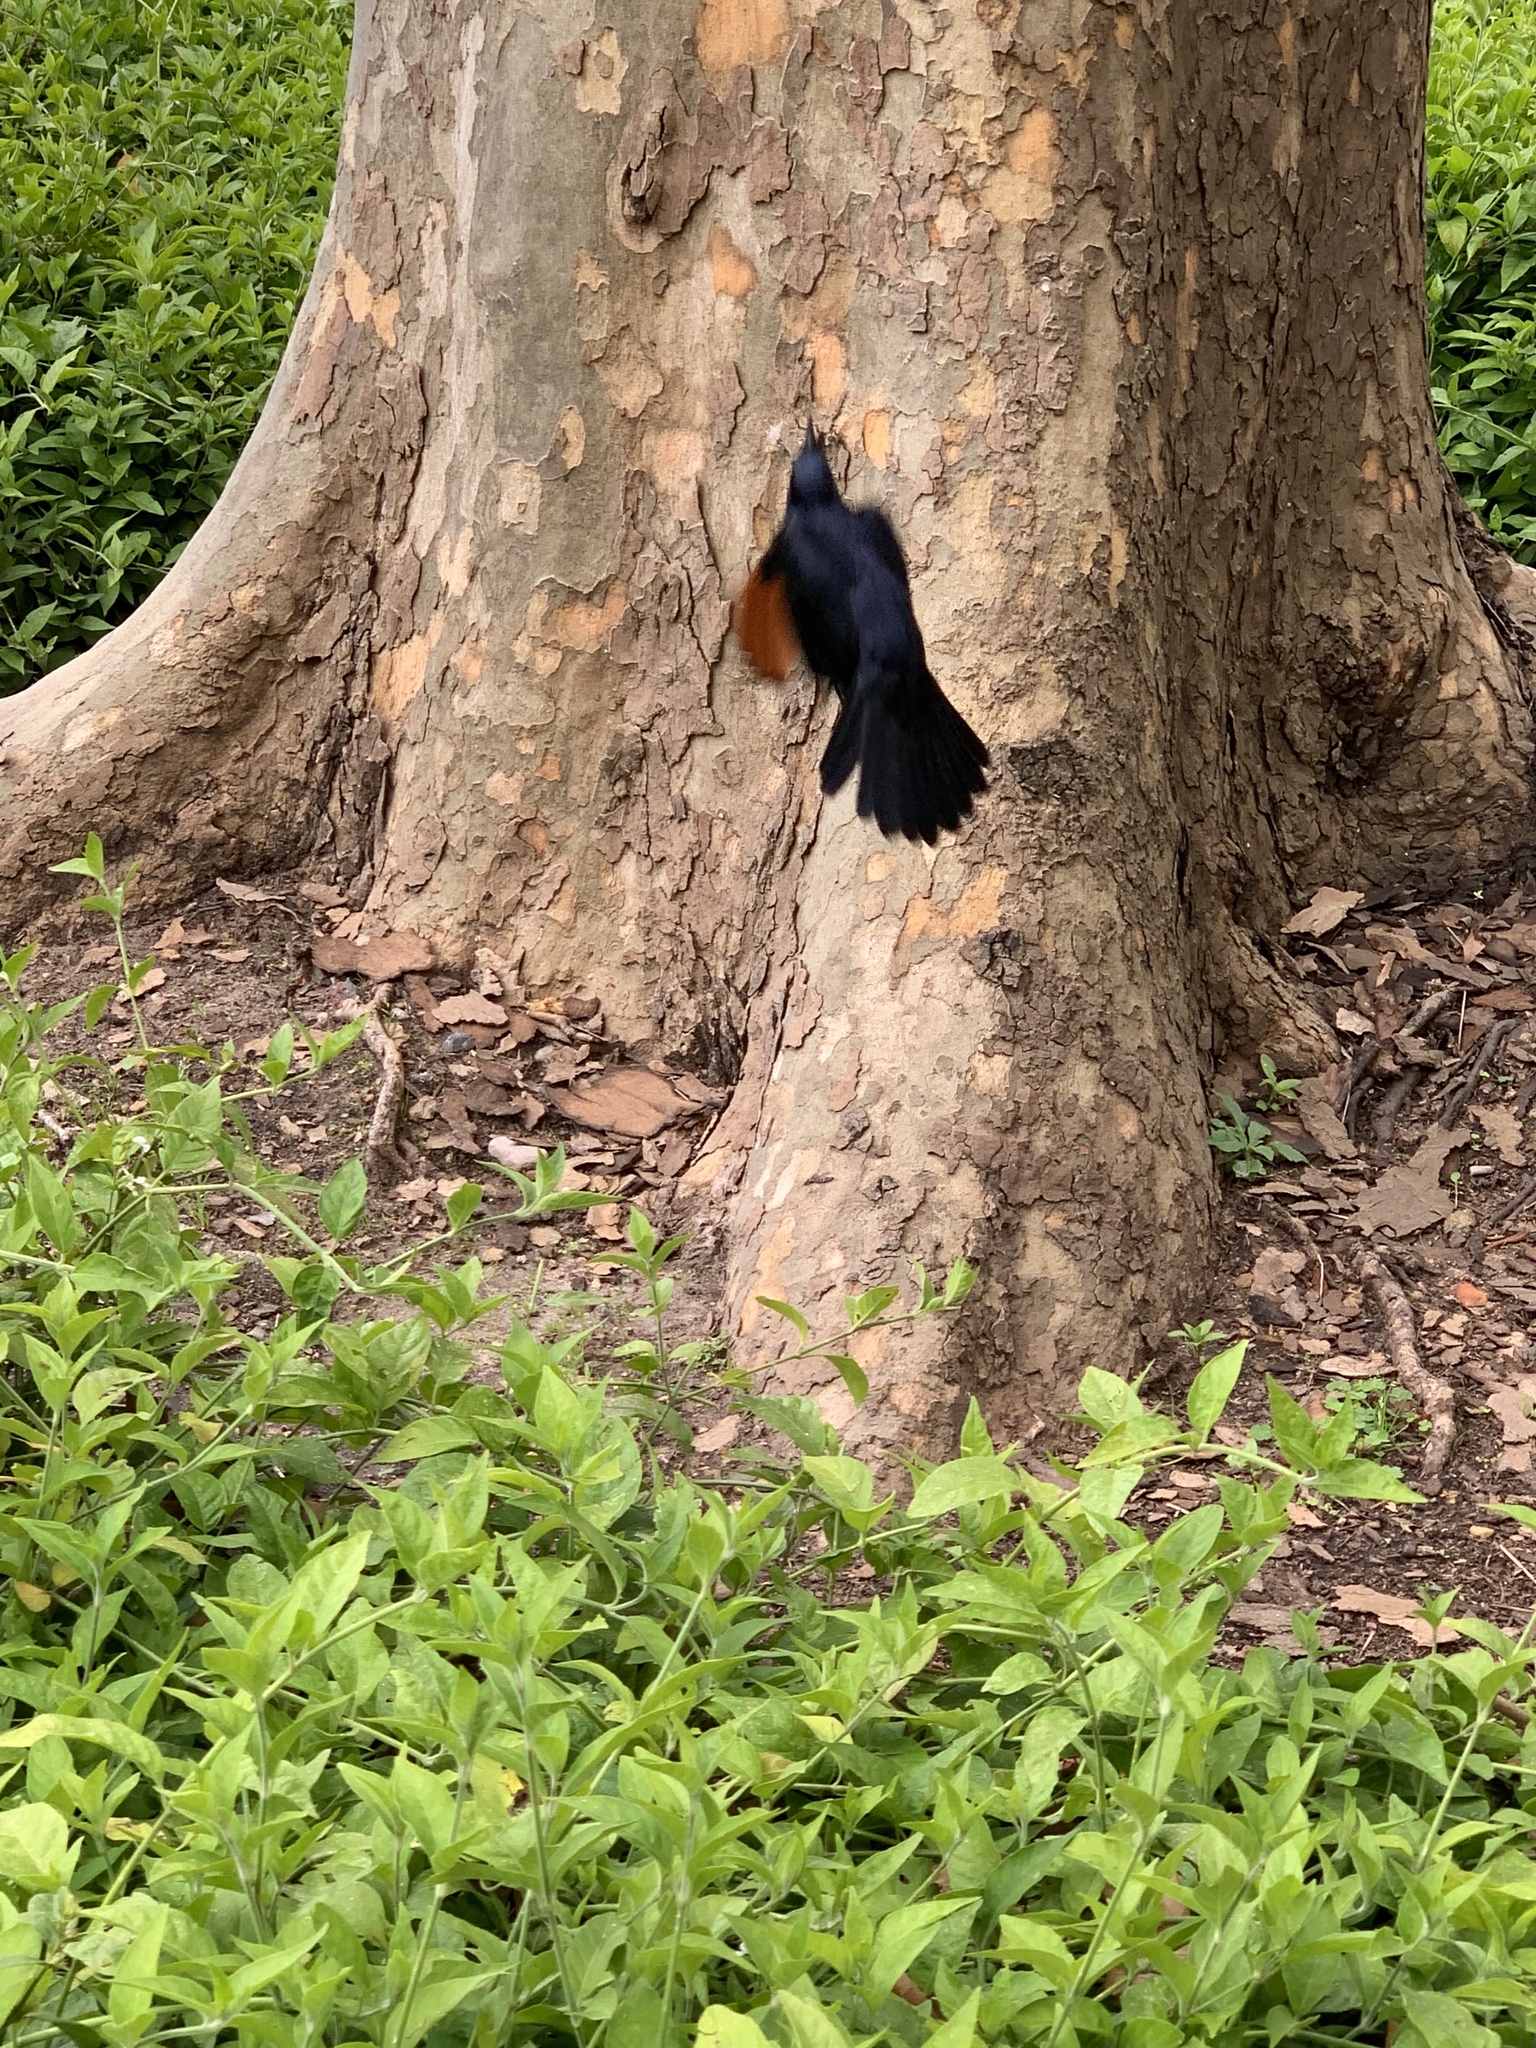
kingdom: Animalia
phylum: Chordata
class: Aves
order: Passeriformes
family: Sturnidae
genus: Onychognathus
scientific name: Onychognathus morio
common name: Red-winged starling
